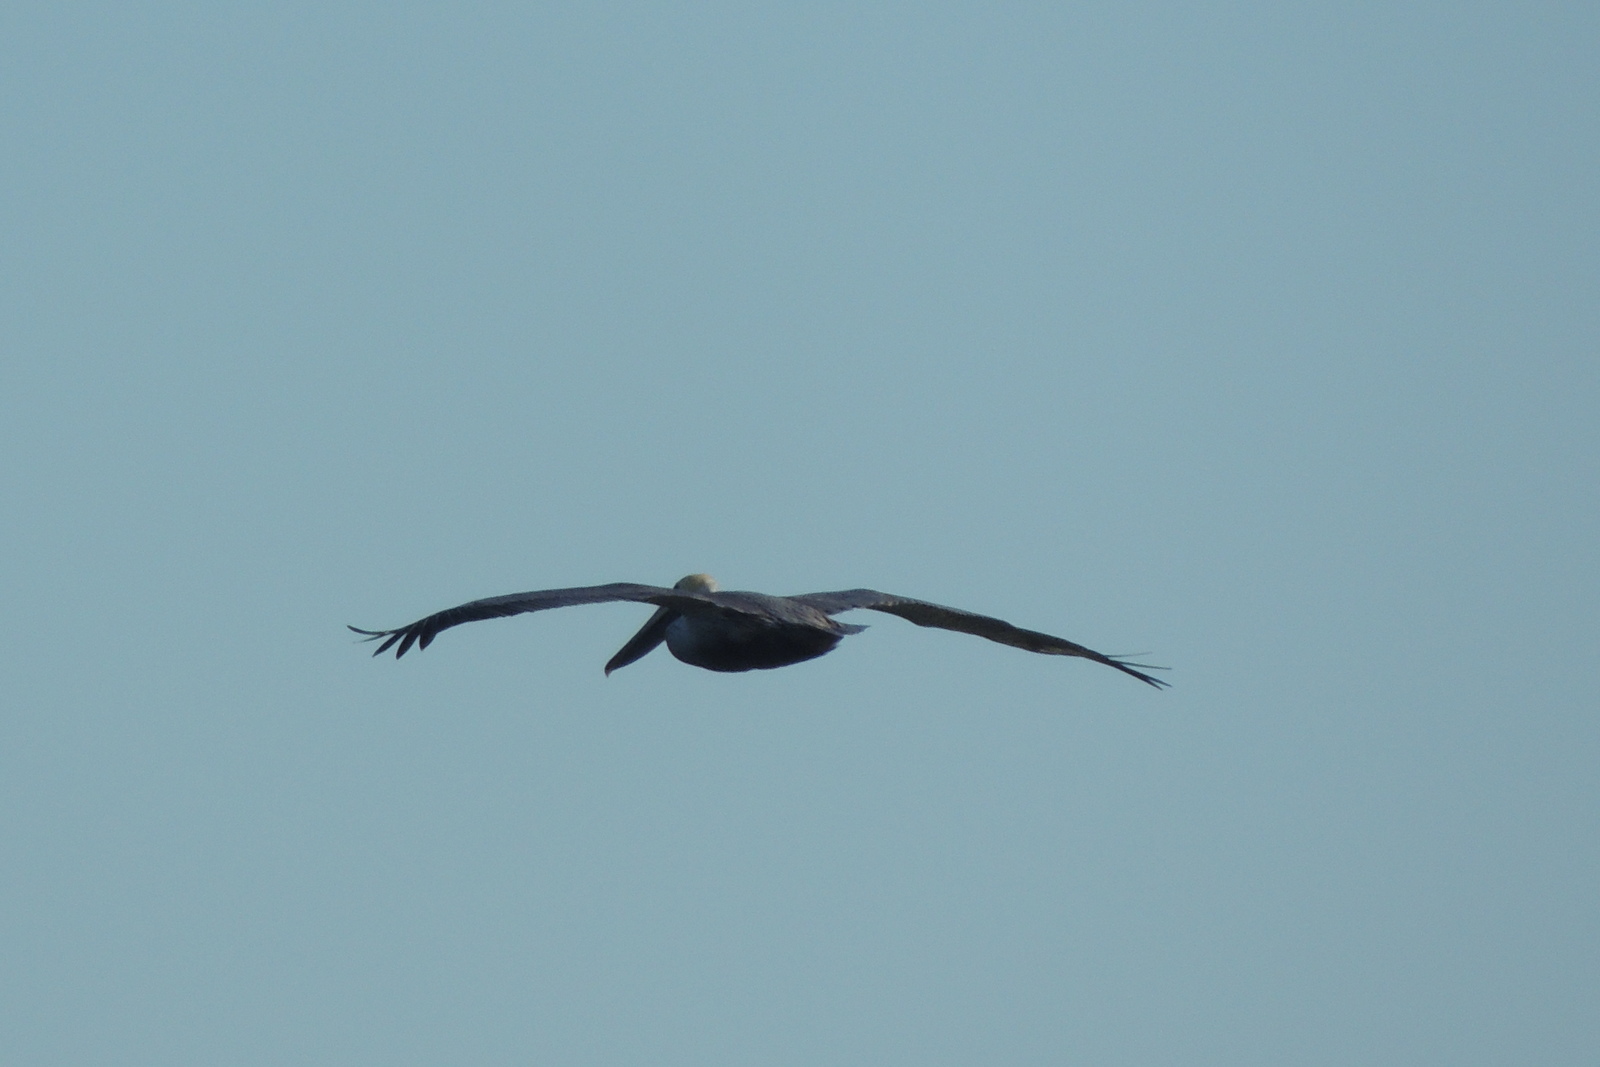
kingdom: Animalia
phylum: Chordata
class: Aves
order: Pelecaniformes
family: Pelecanidae
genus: Pelecanus
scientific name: Pelecanus occidentalis
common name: Brown pelican
